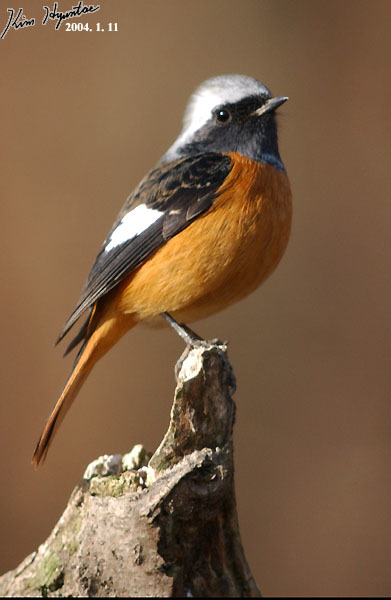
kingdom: Animalia
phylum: Chordata
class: Aves
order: Passeriformes
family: Muscicapidae
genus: Phoenicurus
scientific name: Phoenicurus auroreus
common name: Daurian redstart
